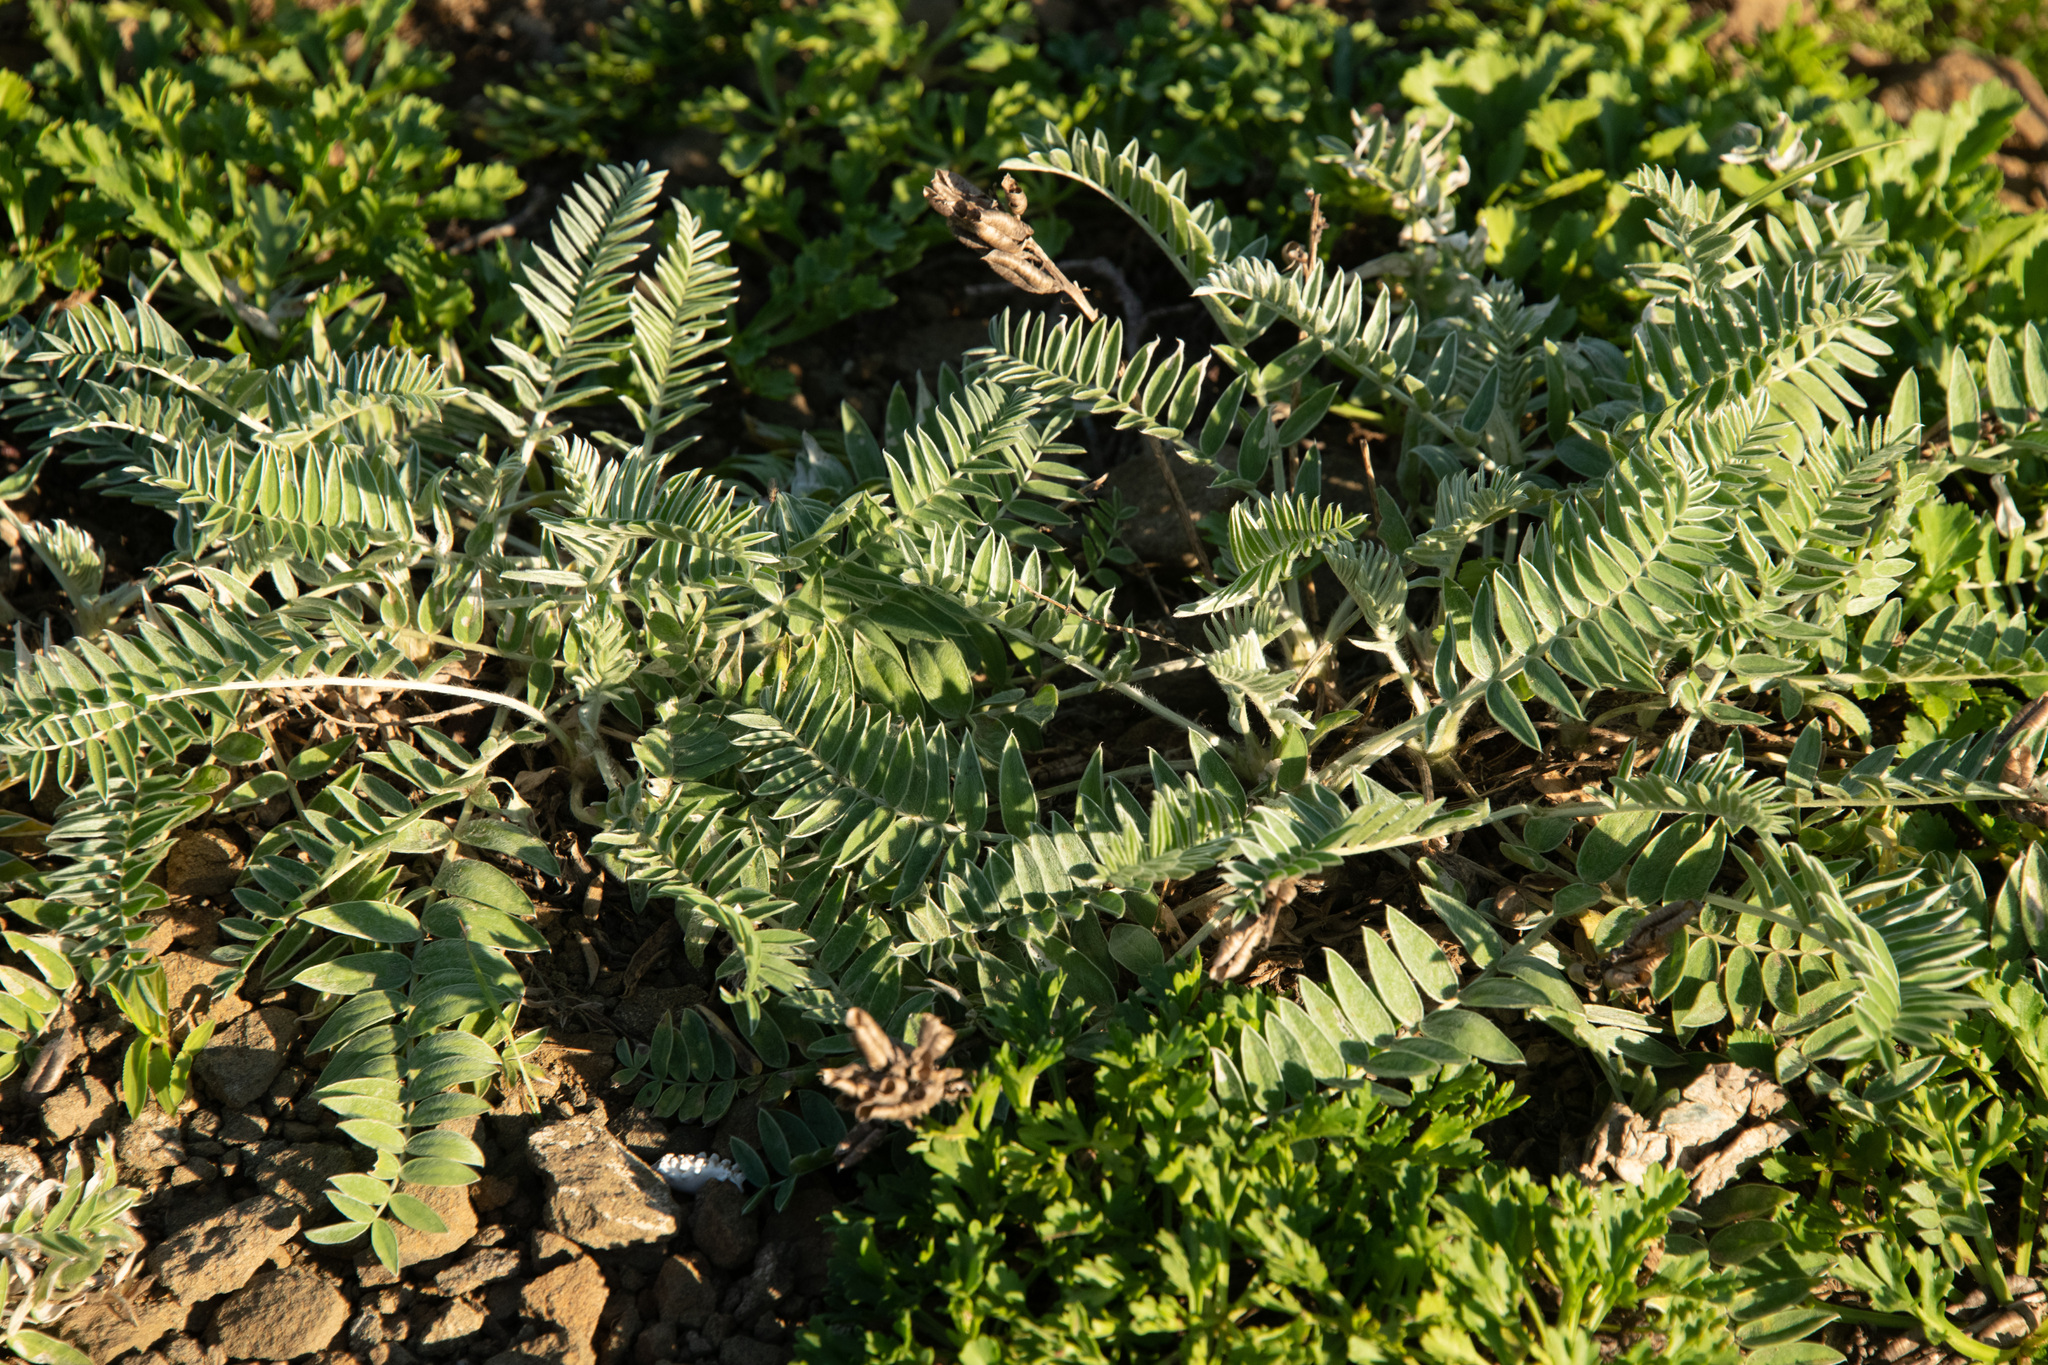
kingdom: Plantae
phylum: Tracheophyta
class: Magnoliopsida
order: Fabales
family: Fabaceae
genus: Oxytropis
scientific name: Oxytropis ruthenica
